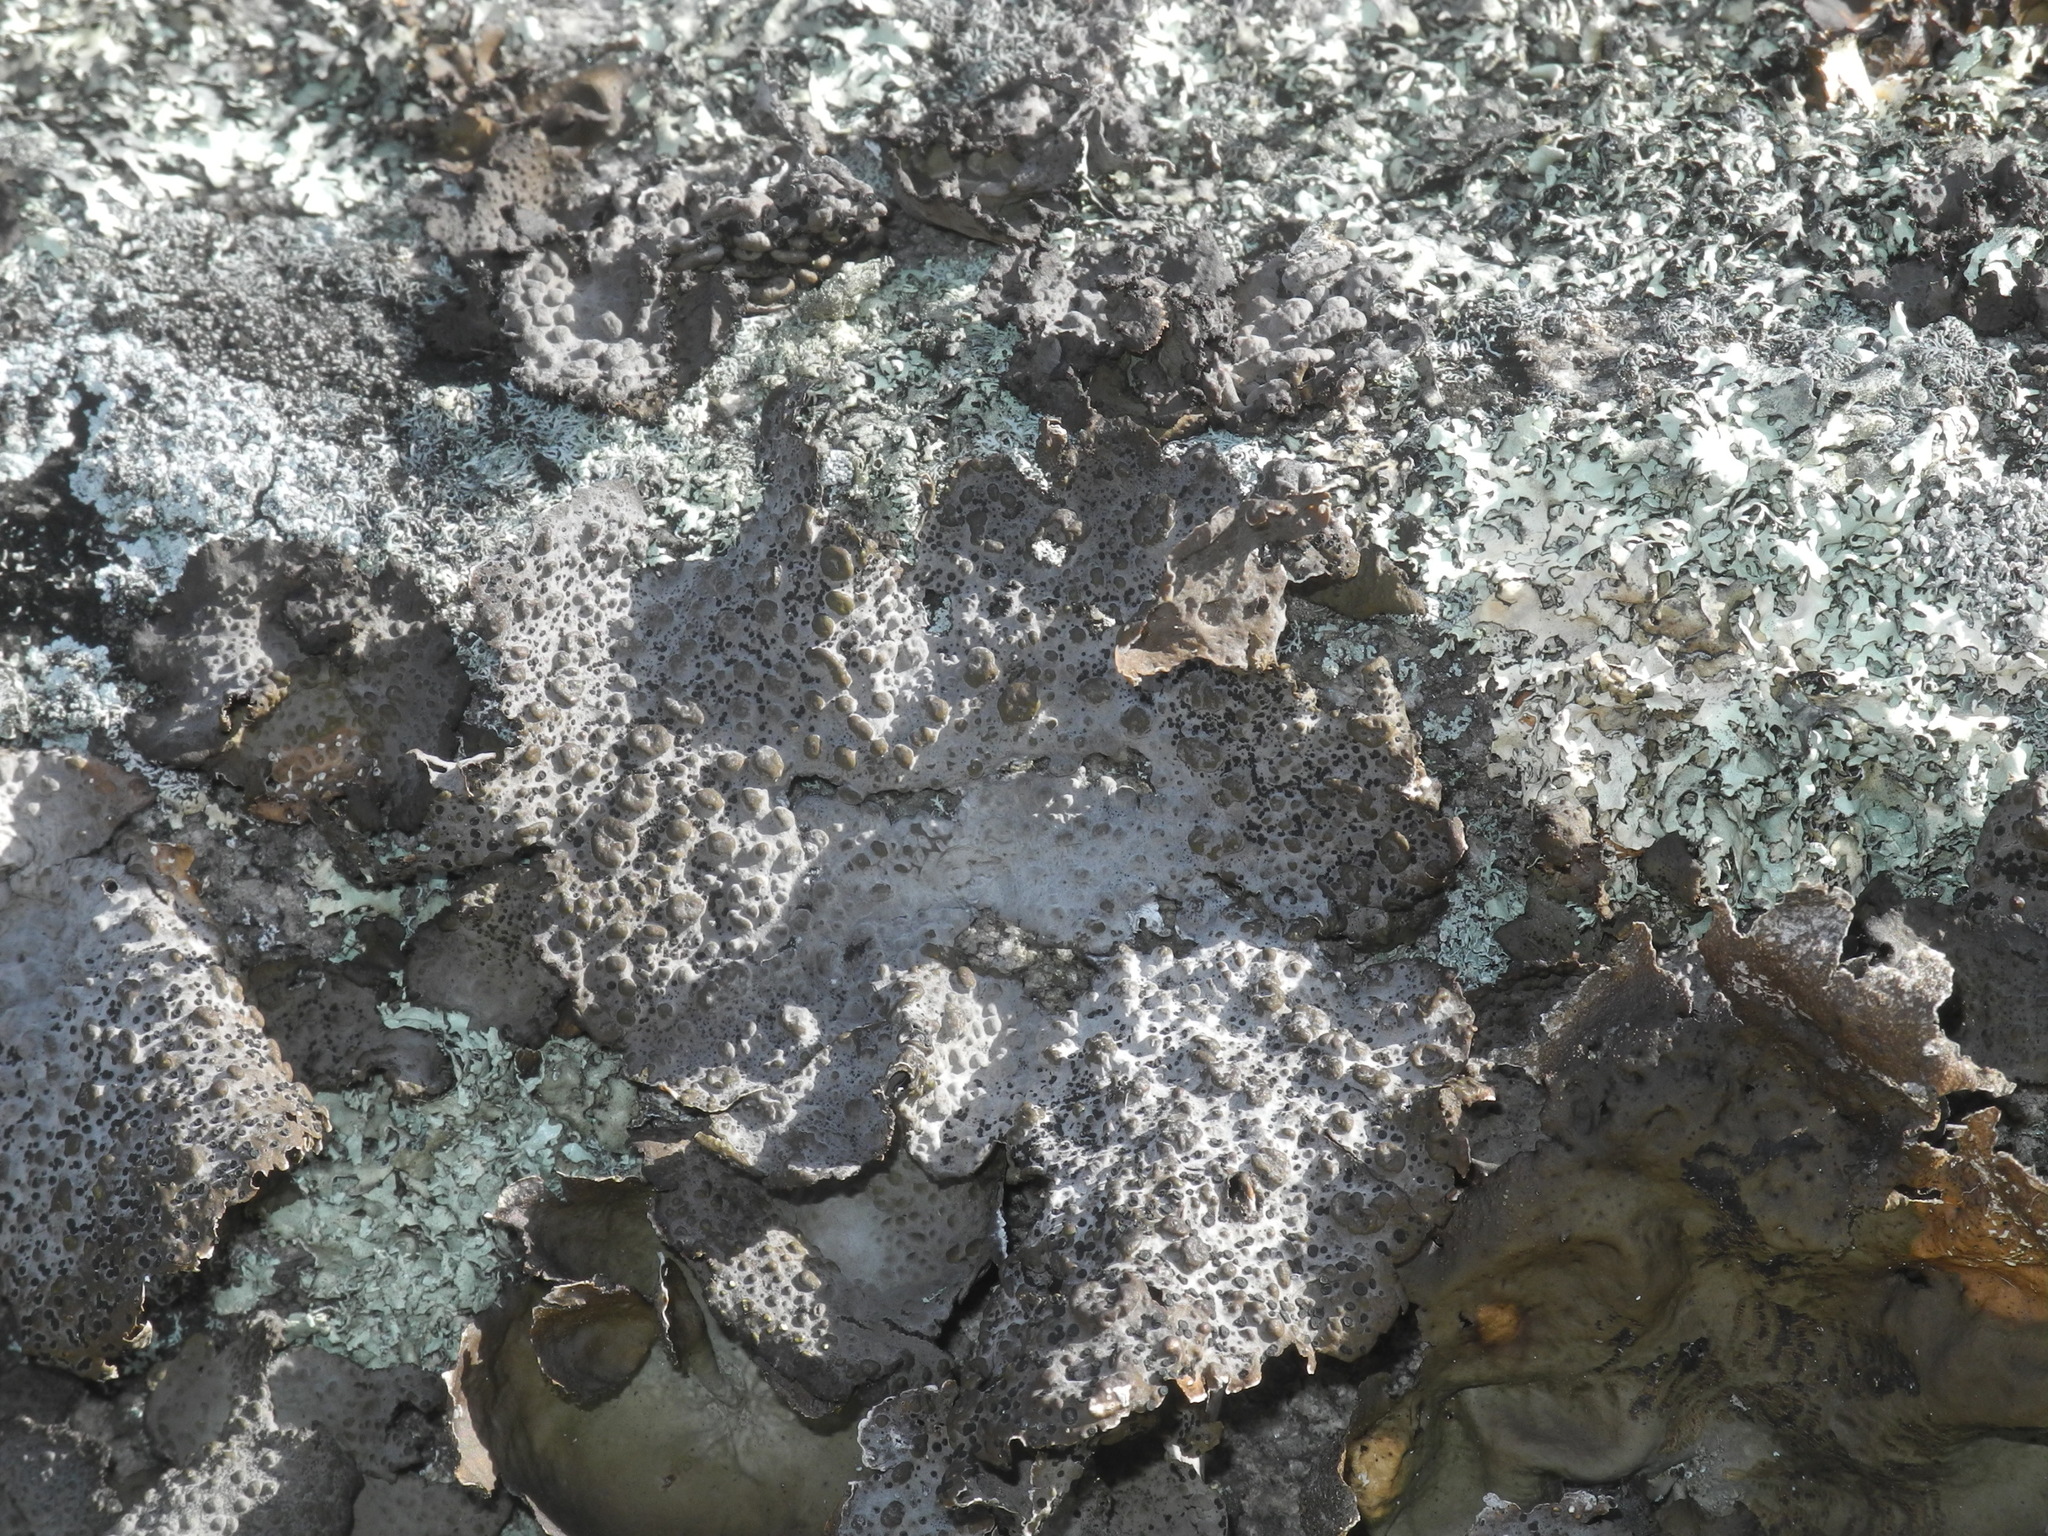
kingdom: Fungi
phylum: Ascomycota
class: Lecanoromycetes
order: Umbilicariales
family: Umbilicariaceae
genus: Lasallia
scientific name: Lasallia papulosa
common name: Common toadskin lichen
